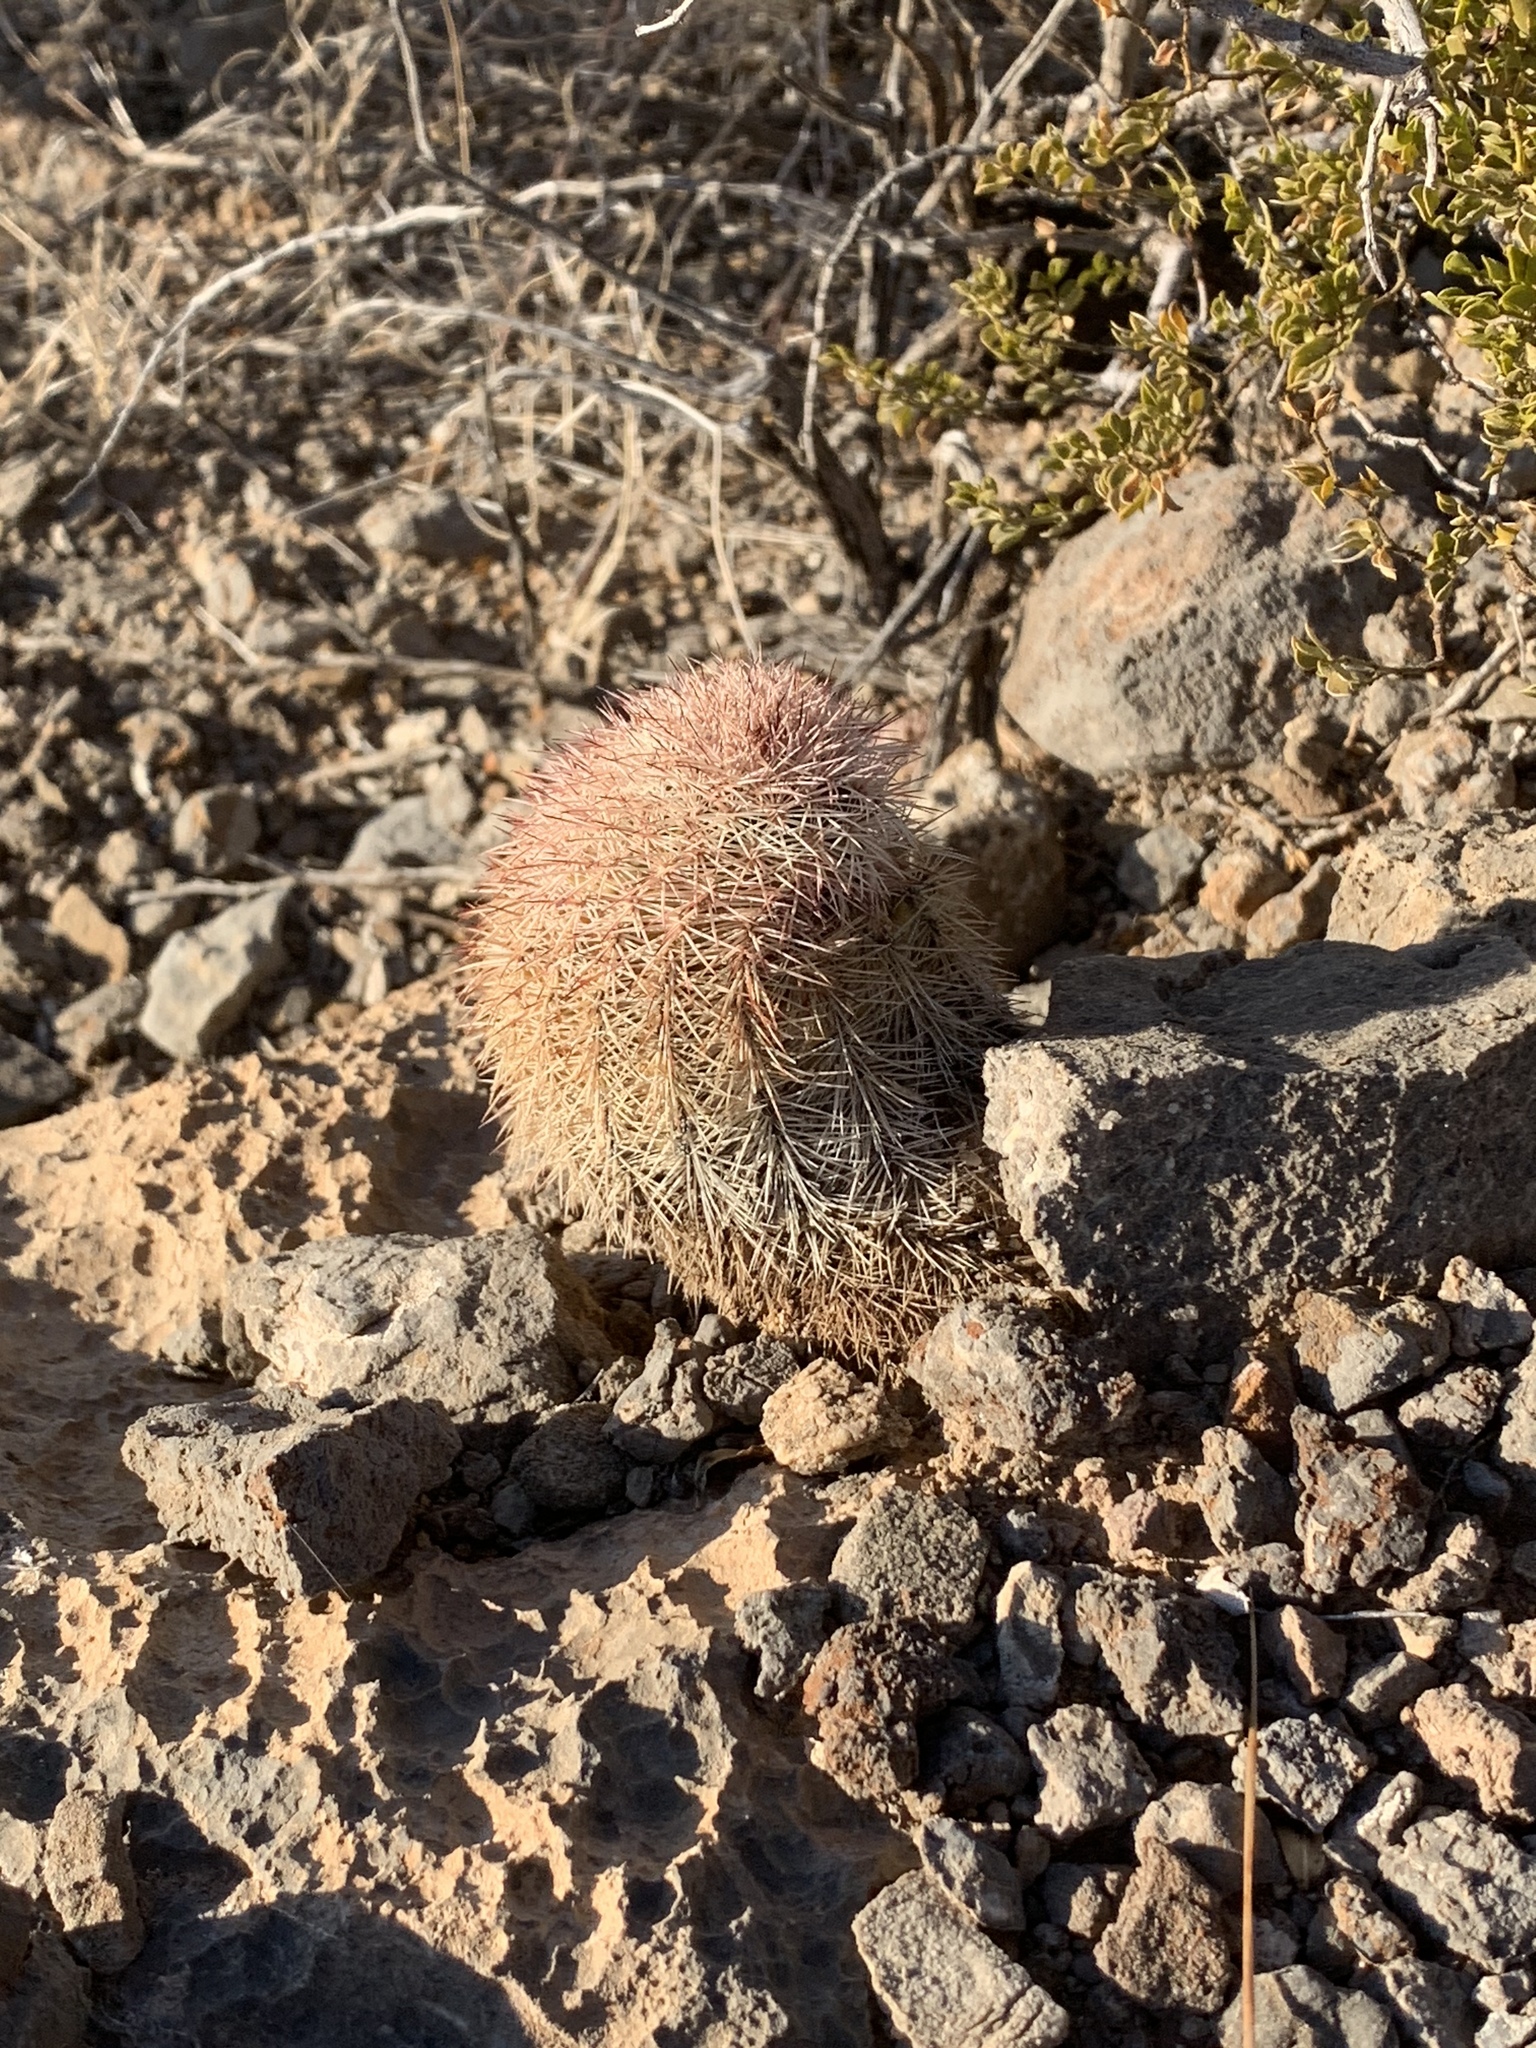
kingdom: Plantae
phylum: Tracheophyta
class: Magnoliopsida
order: Caryophyllales
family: Cactaceae
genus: Echinocereus
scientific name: Echinocereus dasyacanthus
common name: Spiny hedgehog cactus
